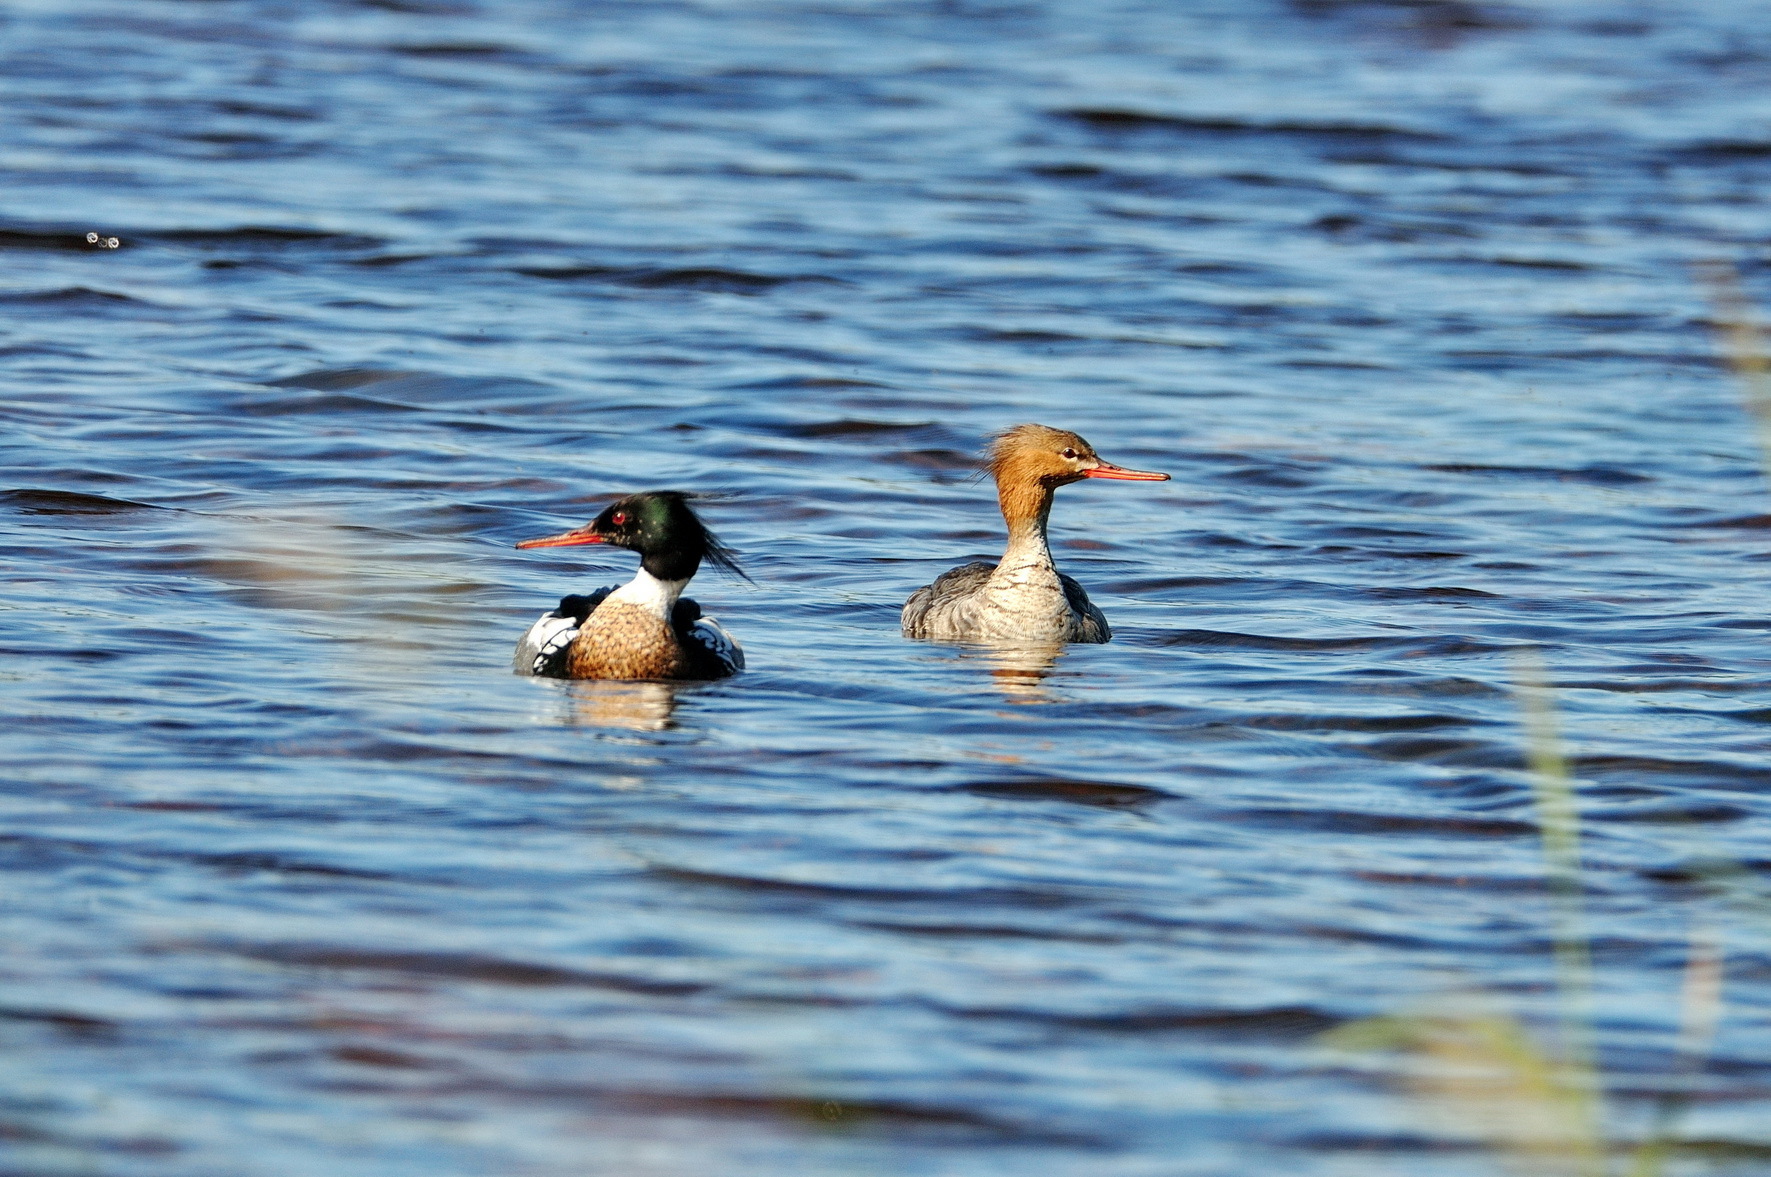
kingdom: Animalia
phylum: Chordata
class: Aves
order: Anseriformes
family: Anatidae
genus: Mergus
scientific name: Mergus serrator
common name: Red-breasted merganser
